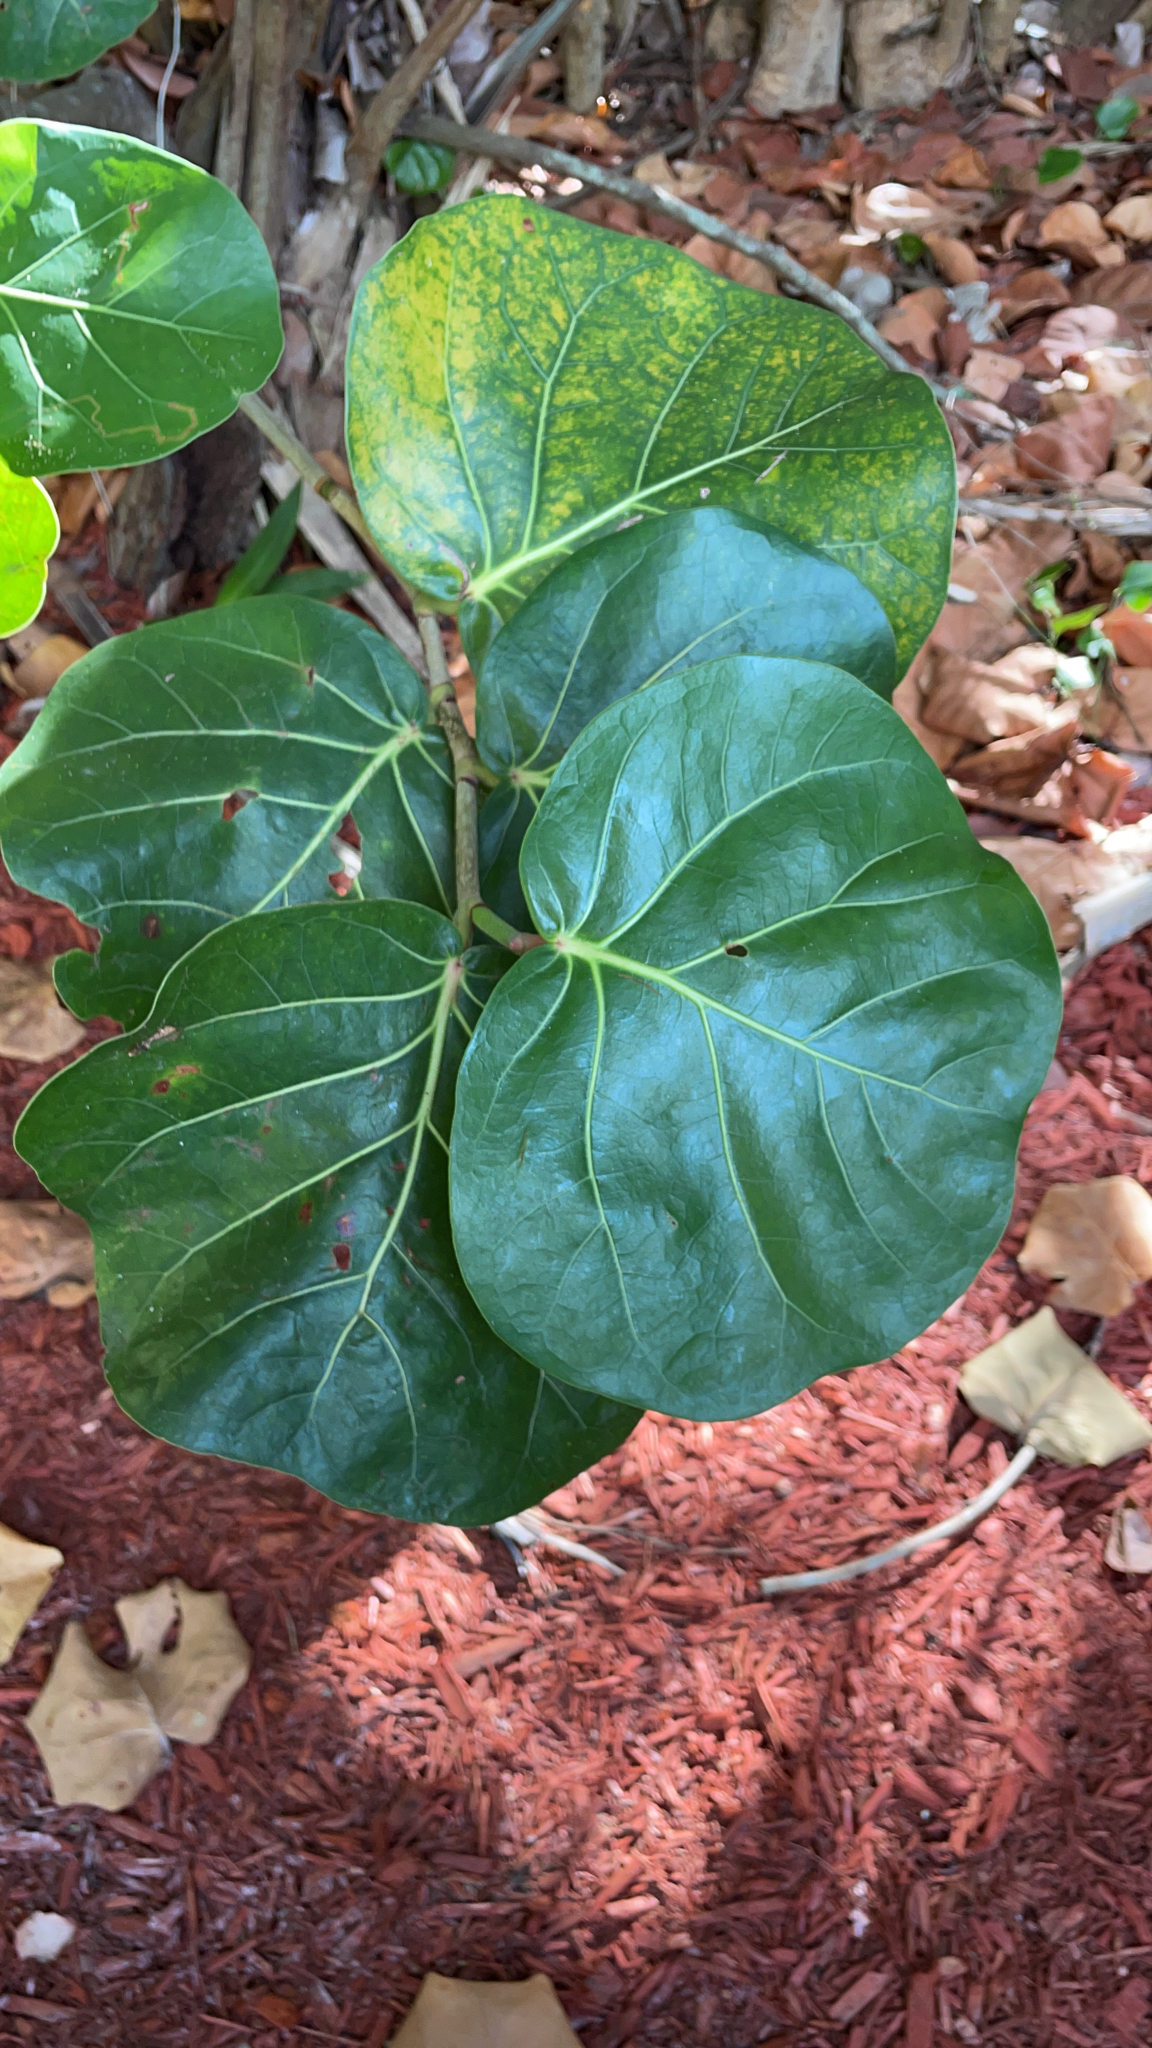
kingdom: Plantae
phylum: Tracheophyta
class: Magnoliopsida
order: Caryophyllales
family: Polygonaceae
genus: Coccoloba
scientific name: Coccoloba uvifera
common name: Seagrape
